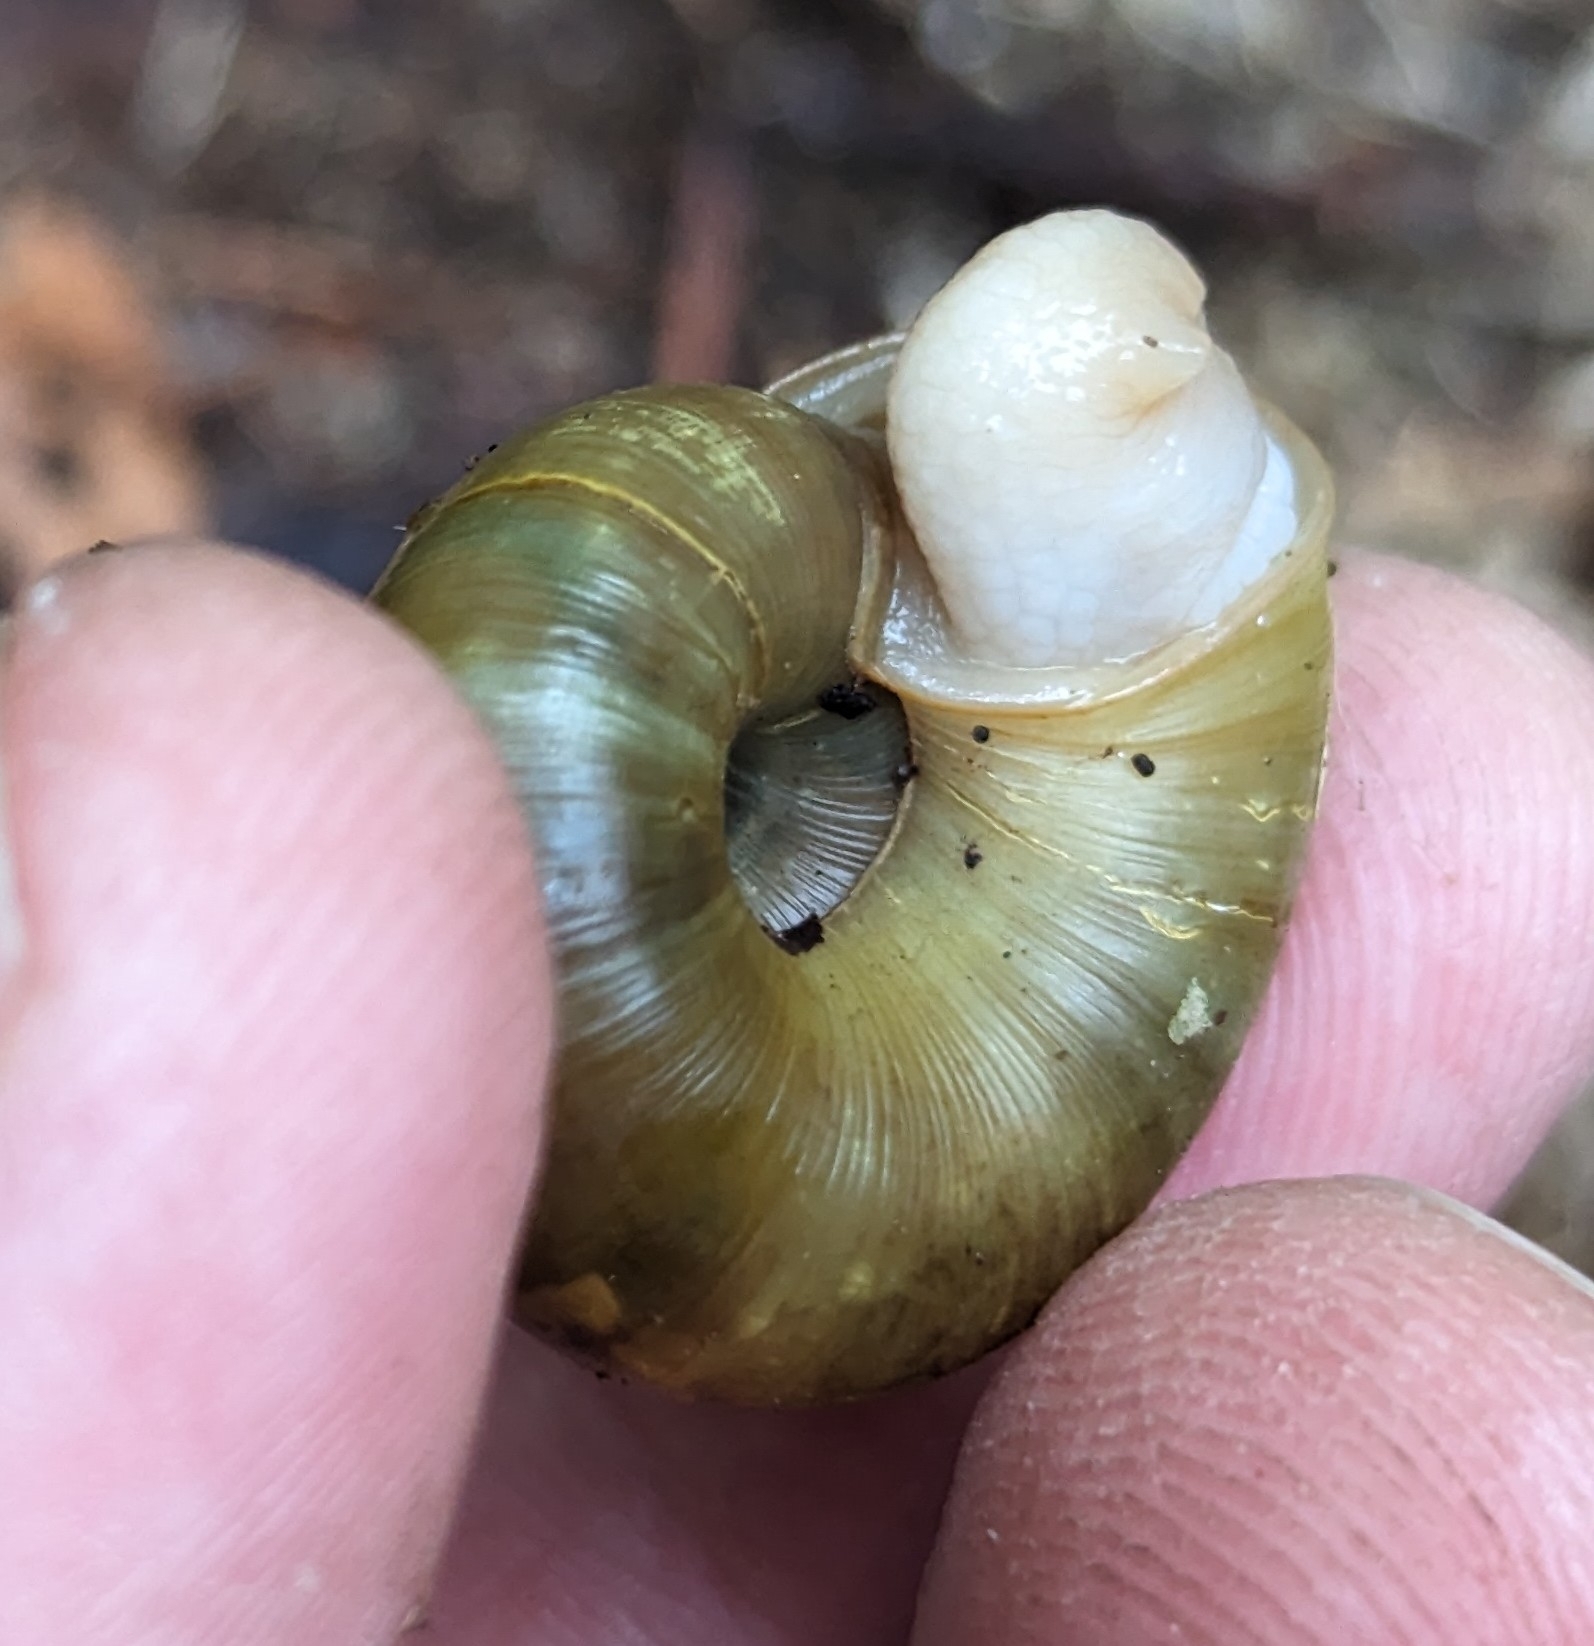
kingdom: Animalia
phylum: Mollusca
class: Gastropoda
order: Stylommatophora
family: Haplotrematidae
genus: Haplotrema
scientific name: Haplotrema vancouverense
